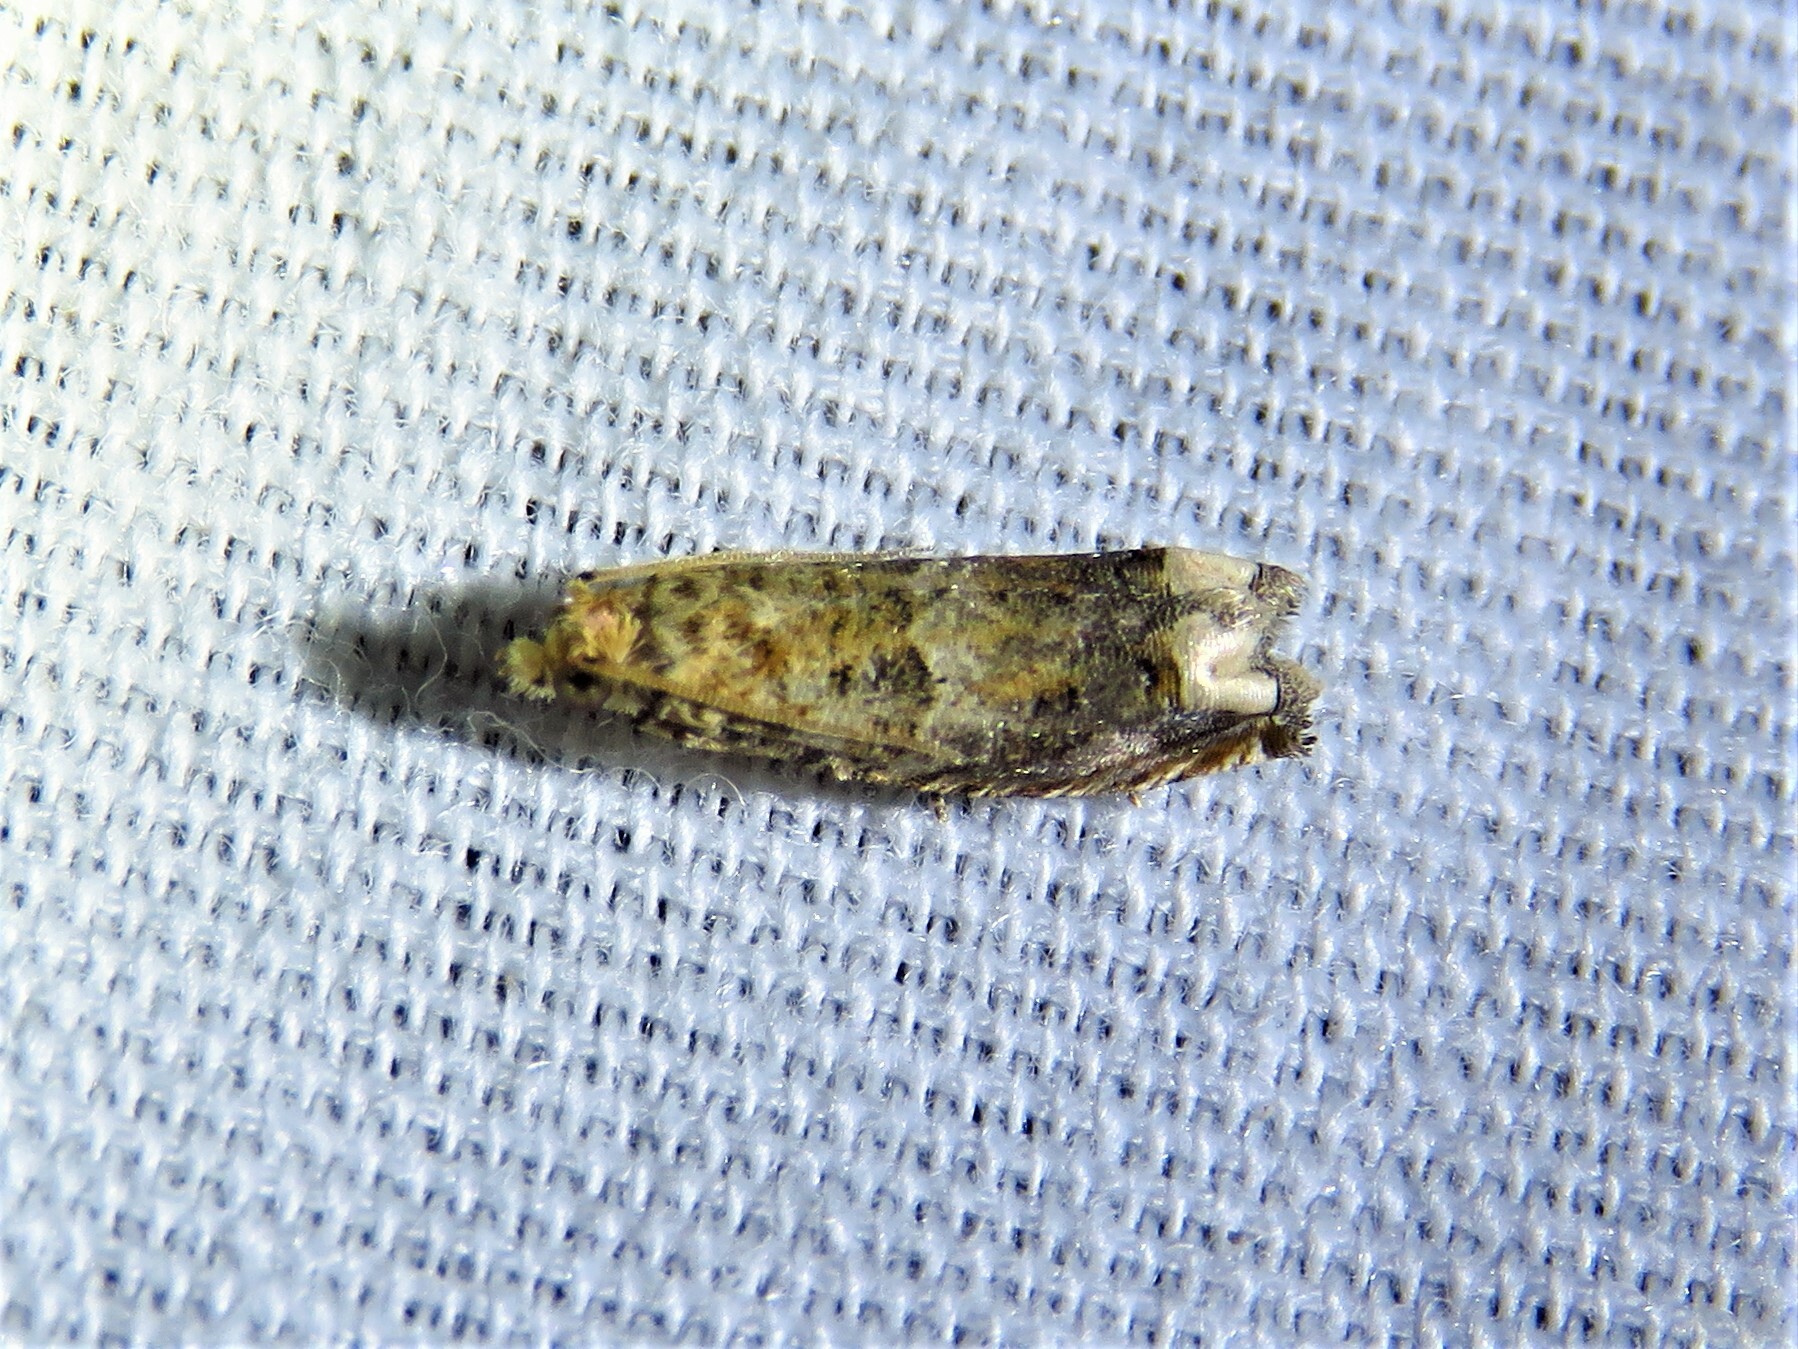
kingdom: Animalia
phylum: Arthropoda
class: Insecta
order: Lepidoptera
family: Tortricidae
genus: Epiblema
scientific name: Epiblema abruptana
